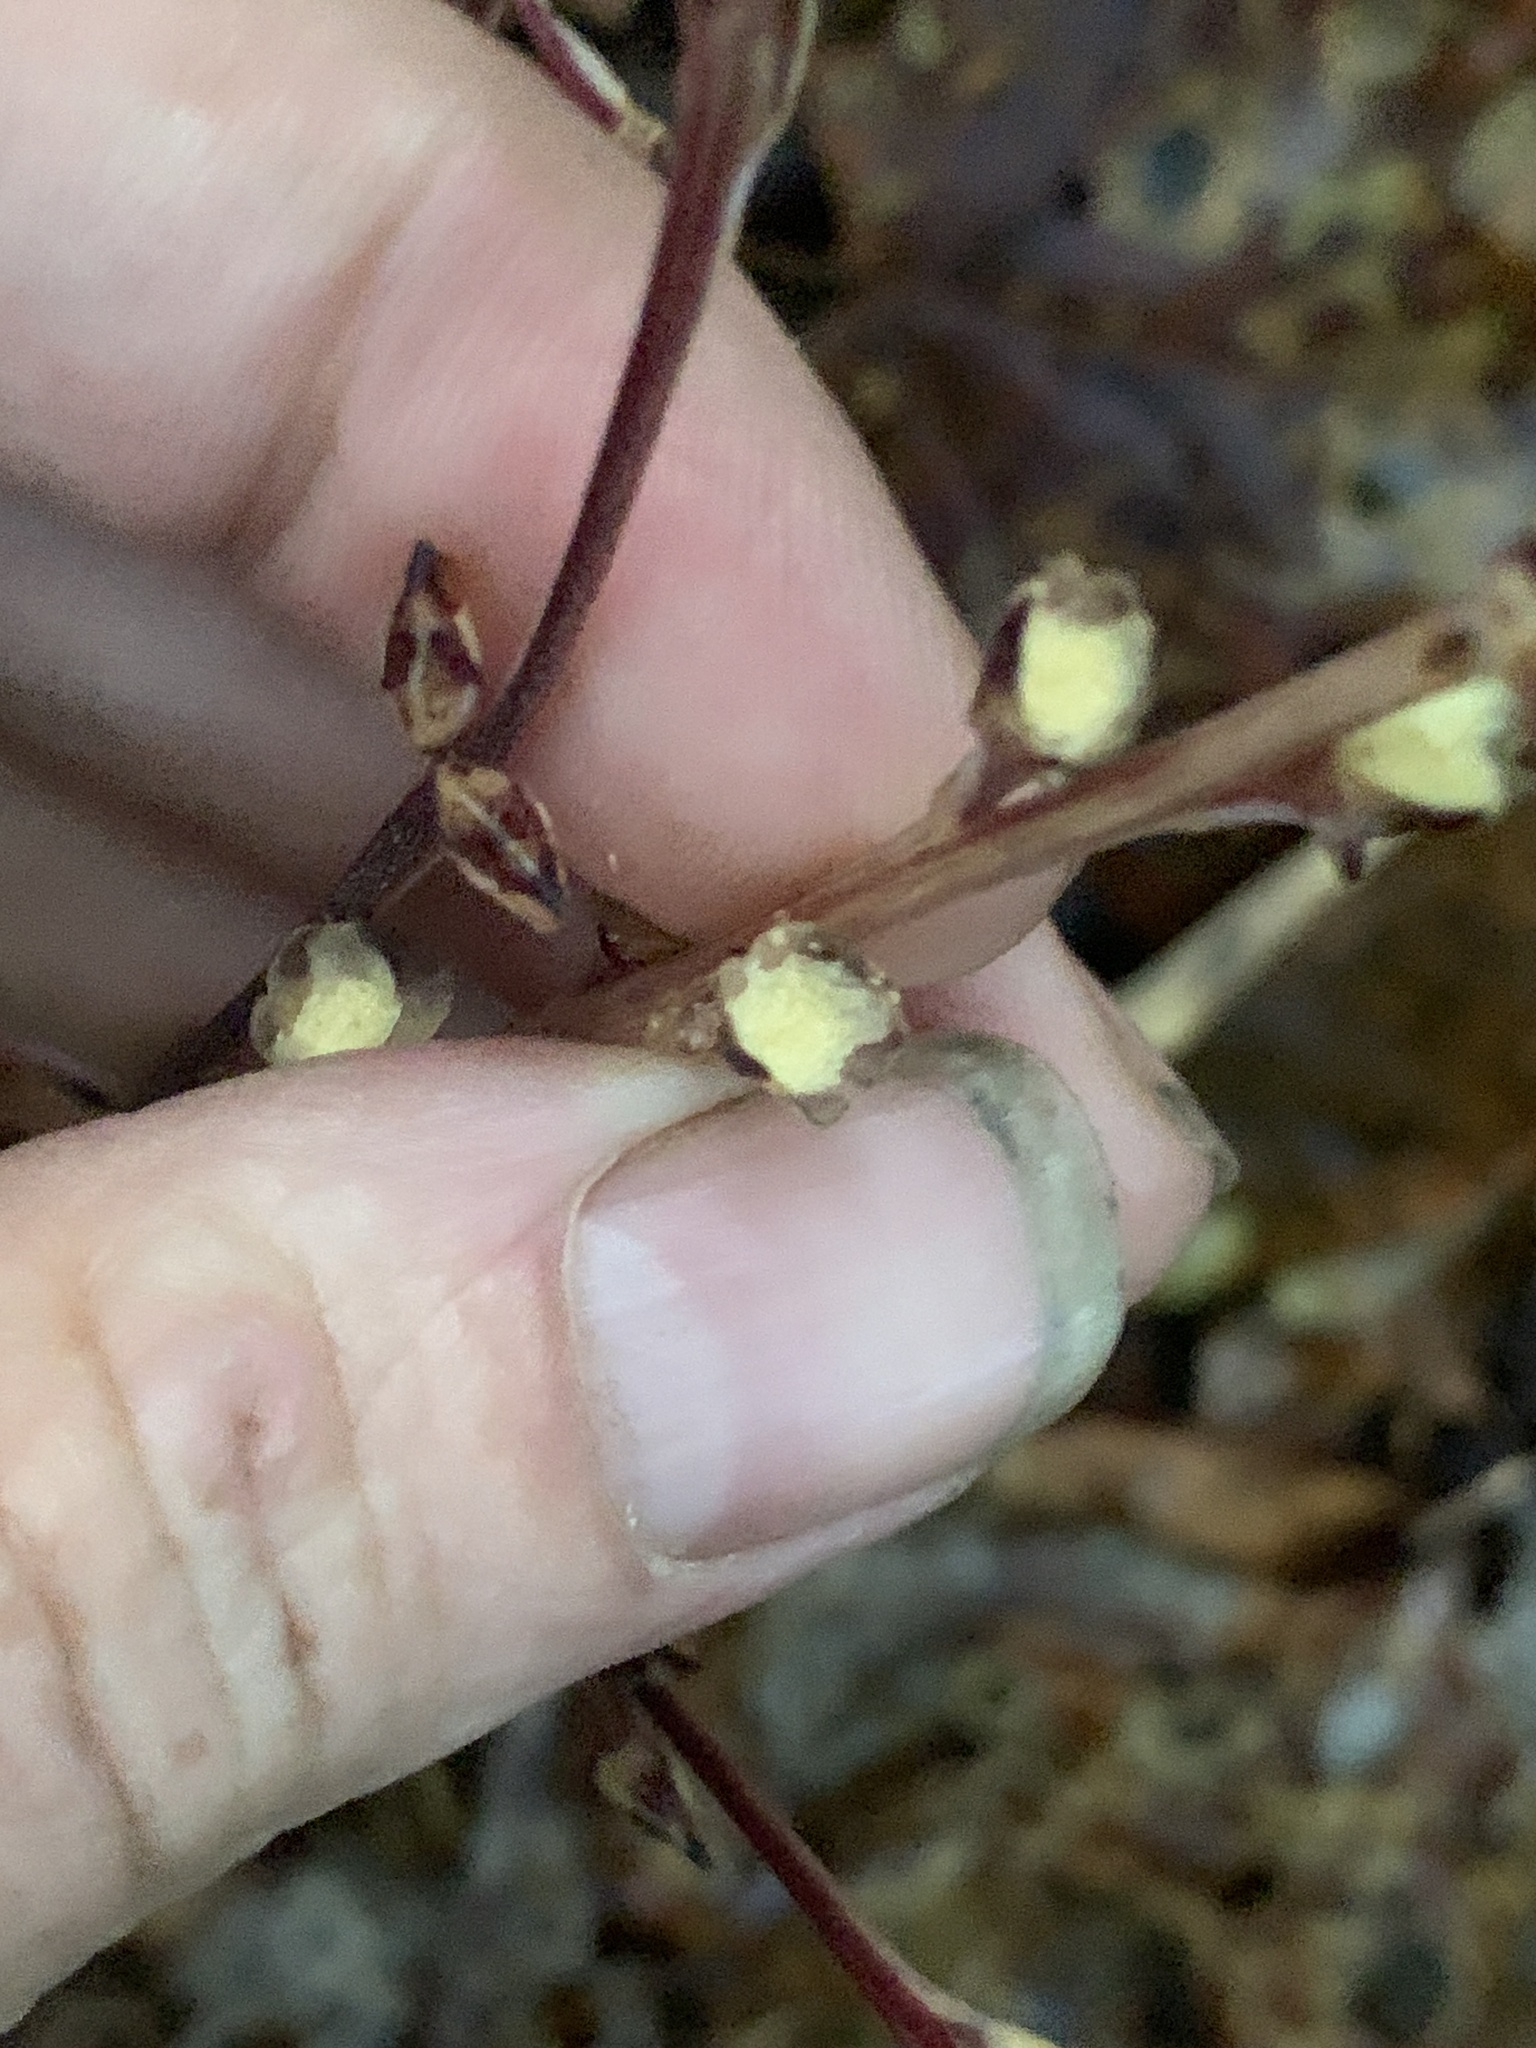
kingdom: Plantae
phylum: Tracheophyta
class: Magnoliopsida
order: Lamiales
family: Orobanchaceae
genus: Epifagus
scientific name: Epifagus virginiana
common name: Beechdrops
